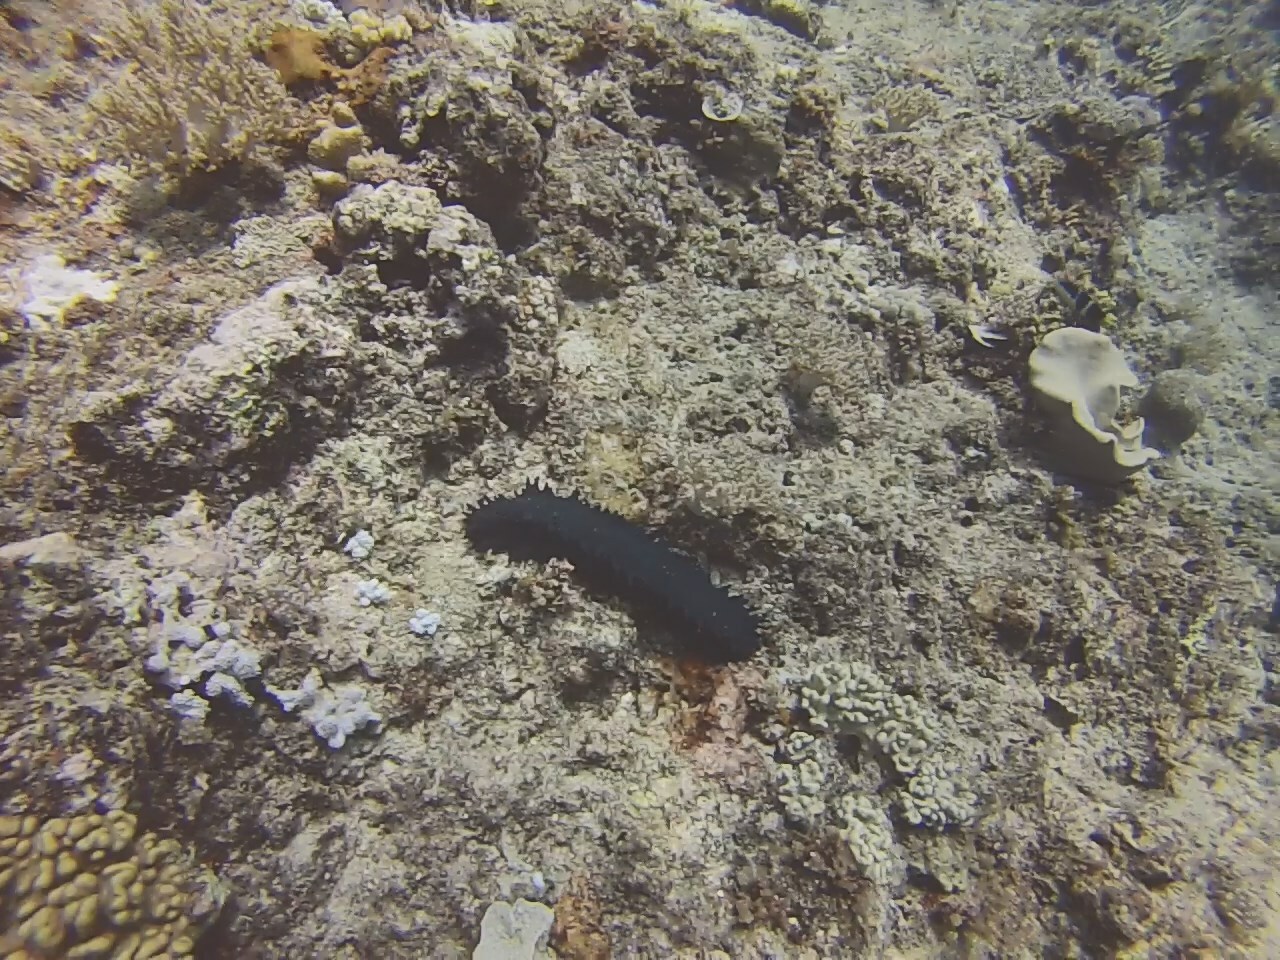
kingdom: Animalia
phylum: Echinodermata
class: Holothuroidea
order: Synallactida
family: Stichopodidae
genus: Stichopus
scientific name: Stichopus chloronotus
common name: Greenfish
